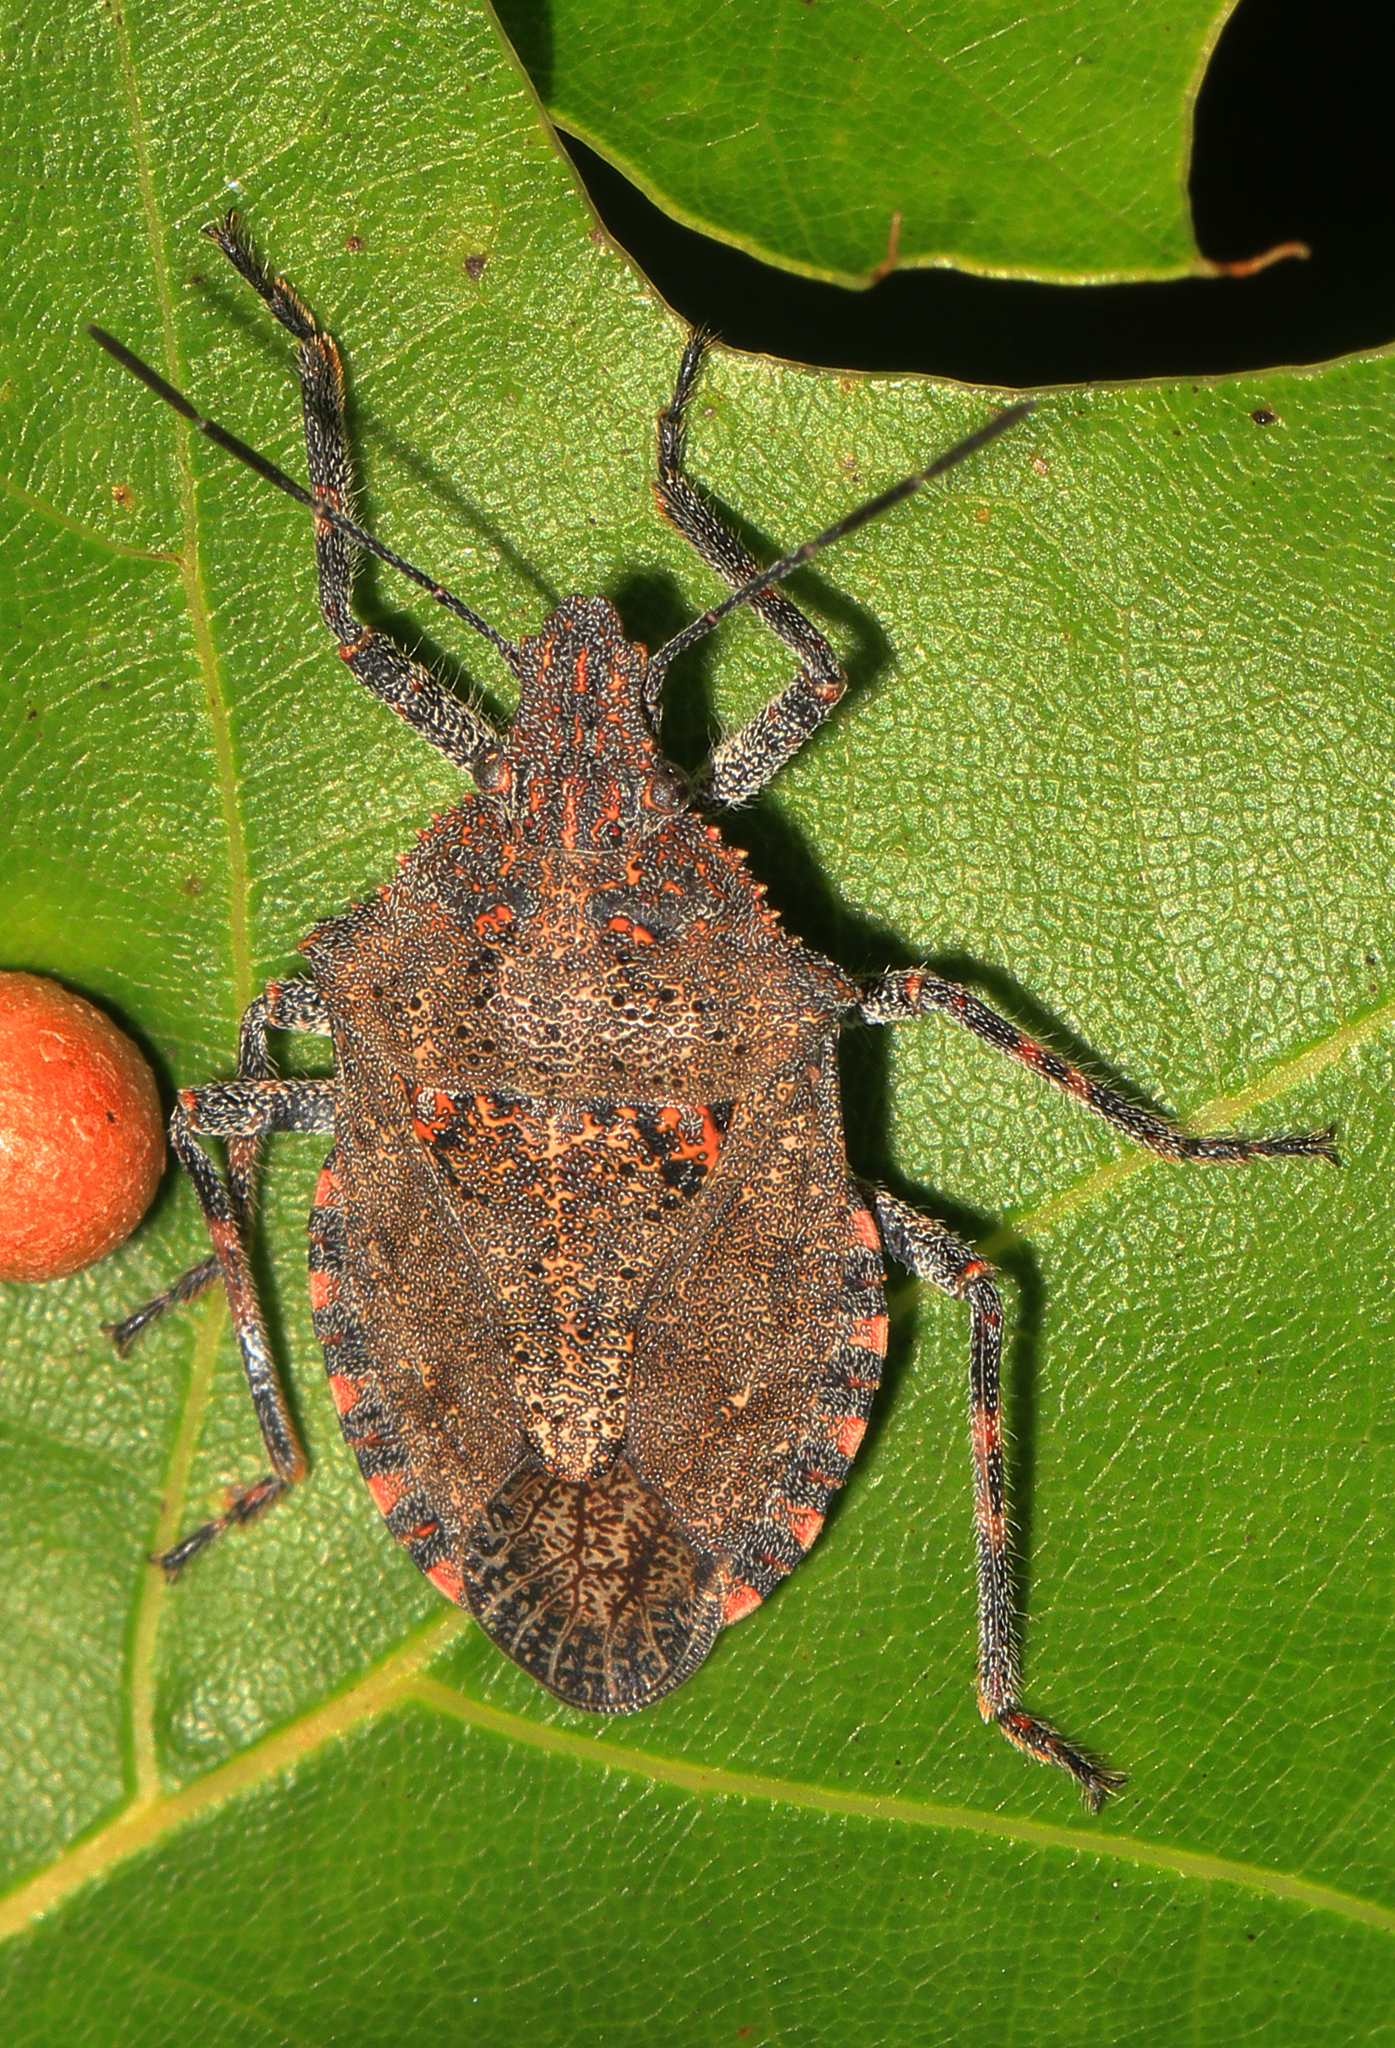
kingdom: Animalia
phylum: Arthropoda
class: Insecta
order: Hemiptera
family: Pentatomidae
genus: Brochymena
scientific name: Brochymena quadripustulata
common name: Four-humped stink bug
